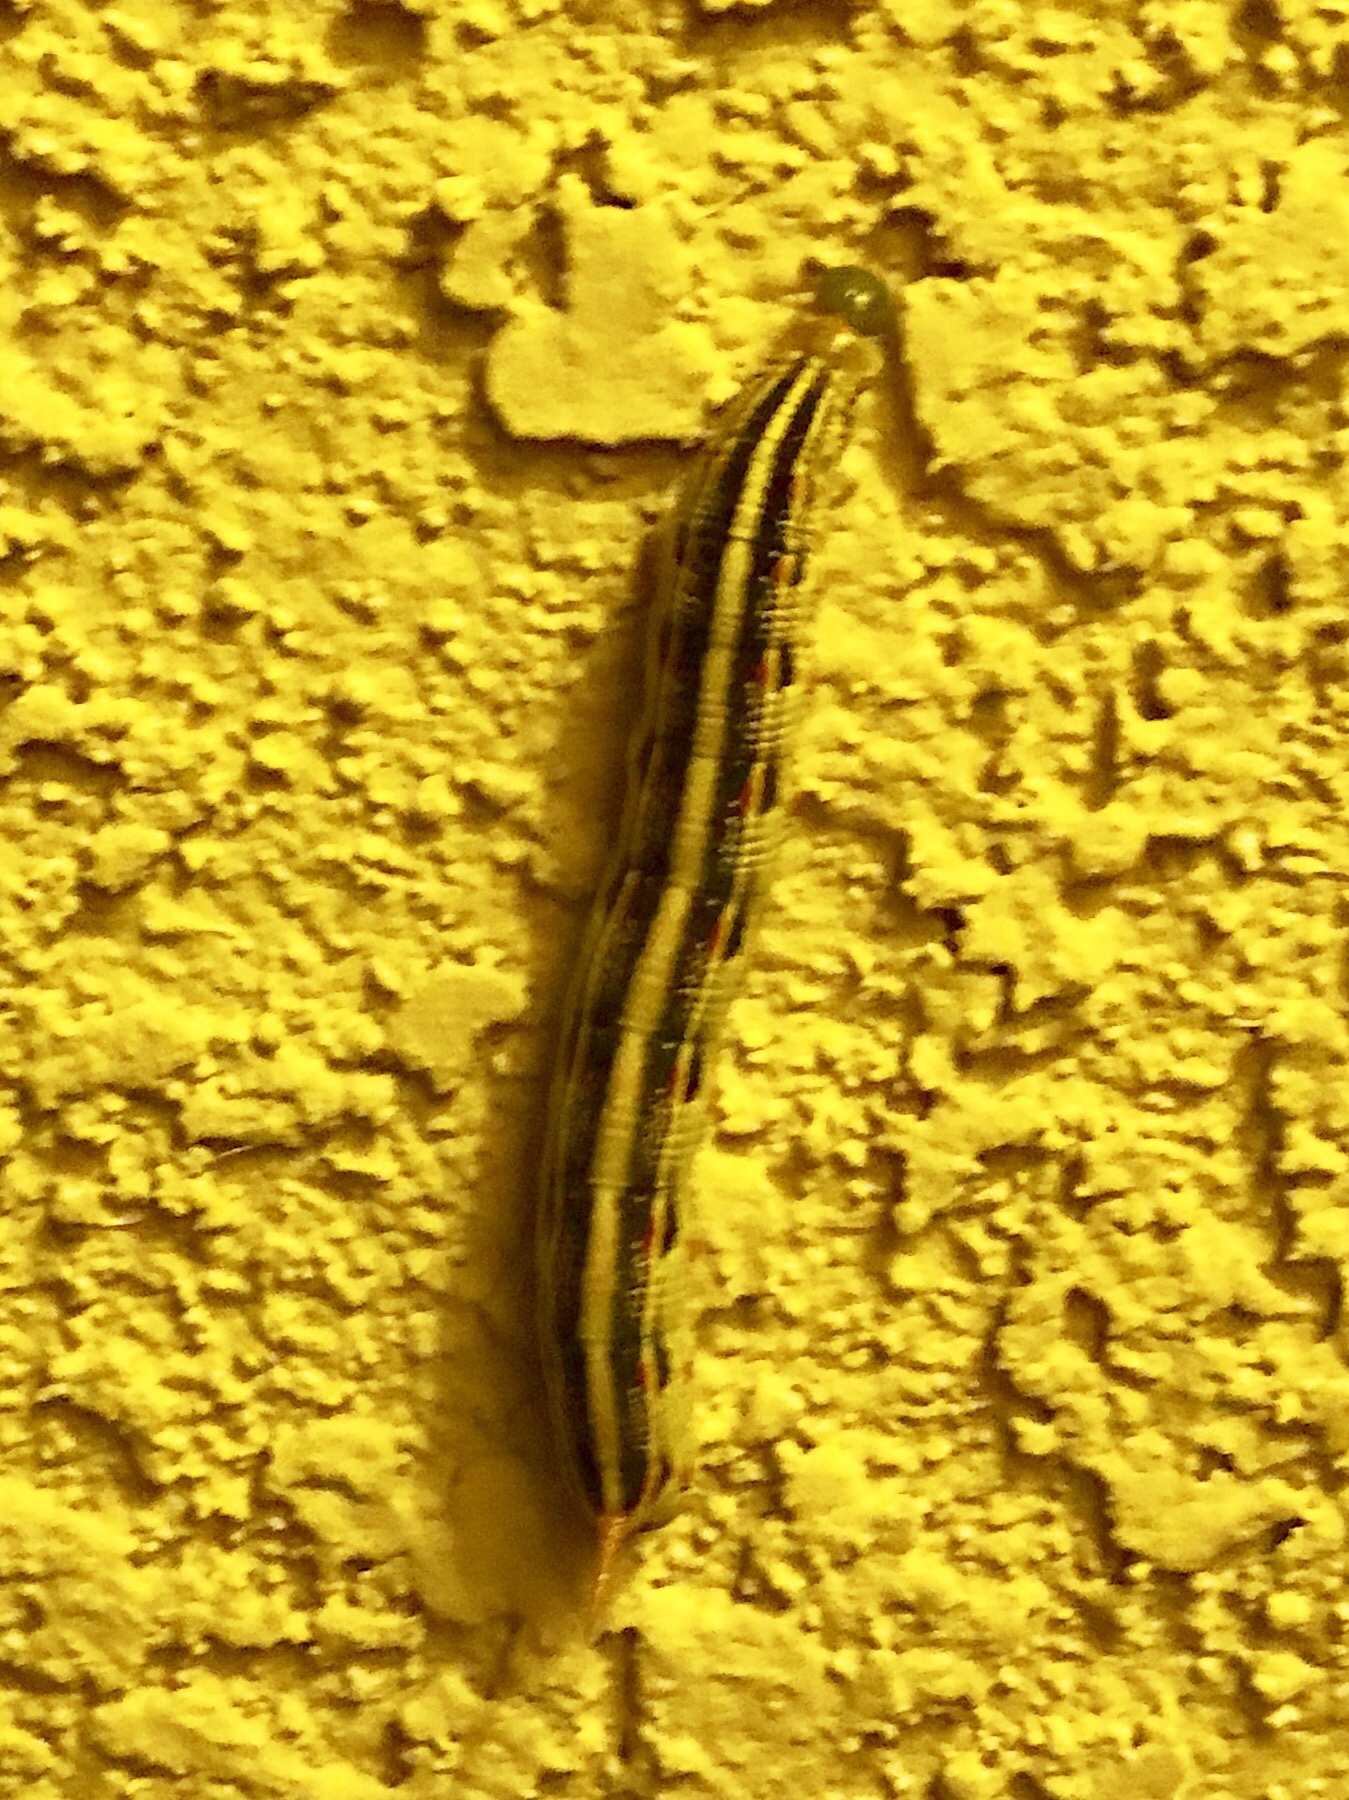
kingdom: Animalia
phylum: Arthropoda
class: Insecta
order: Lepidoptera
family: Sphingidae
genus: Hyles
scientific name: Hyles lineata
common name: White-lined sphinx
